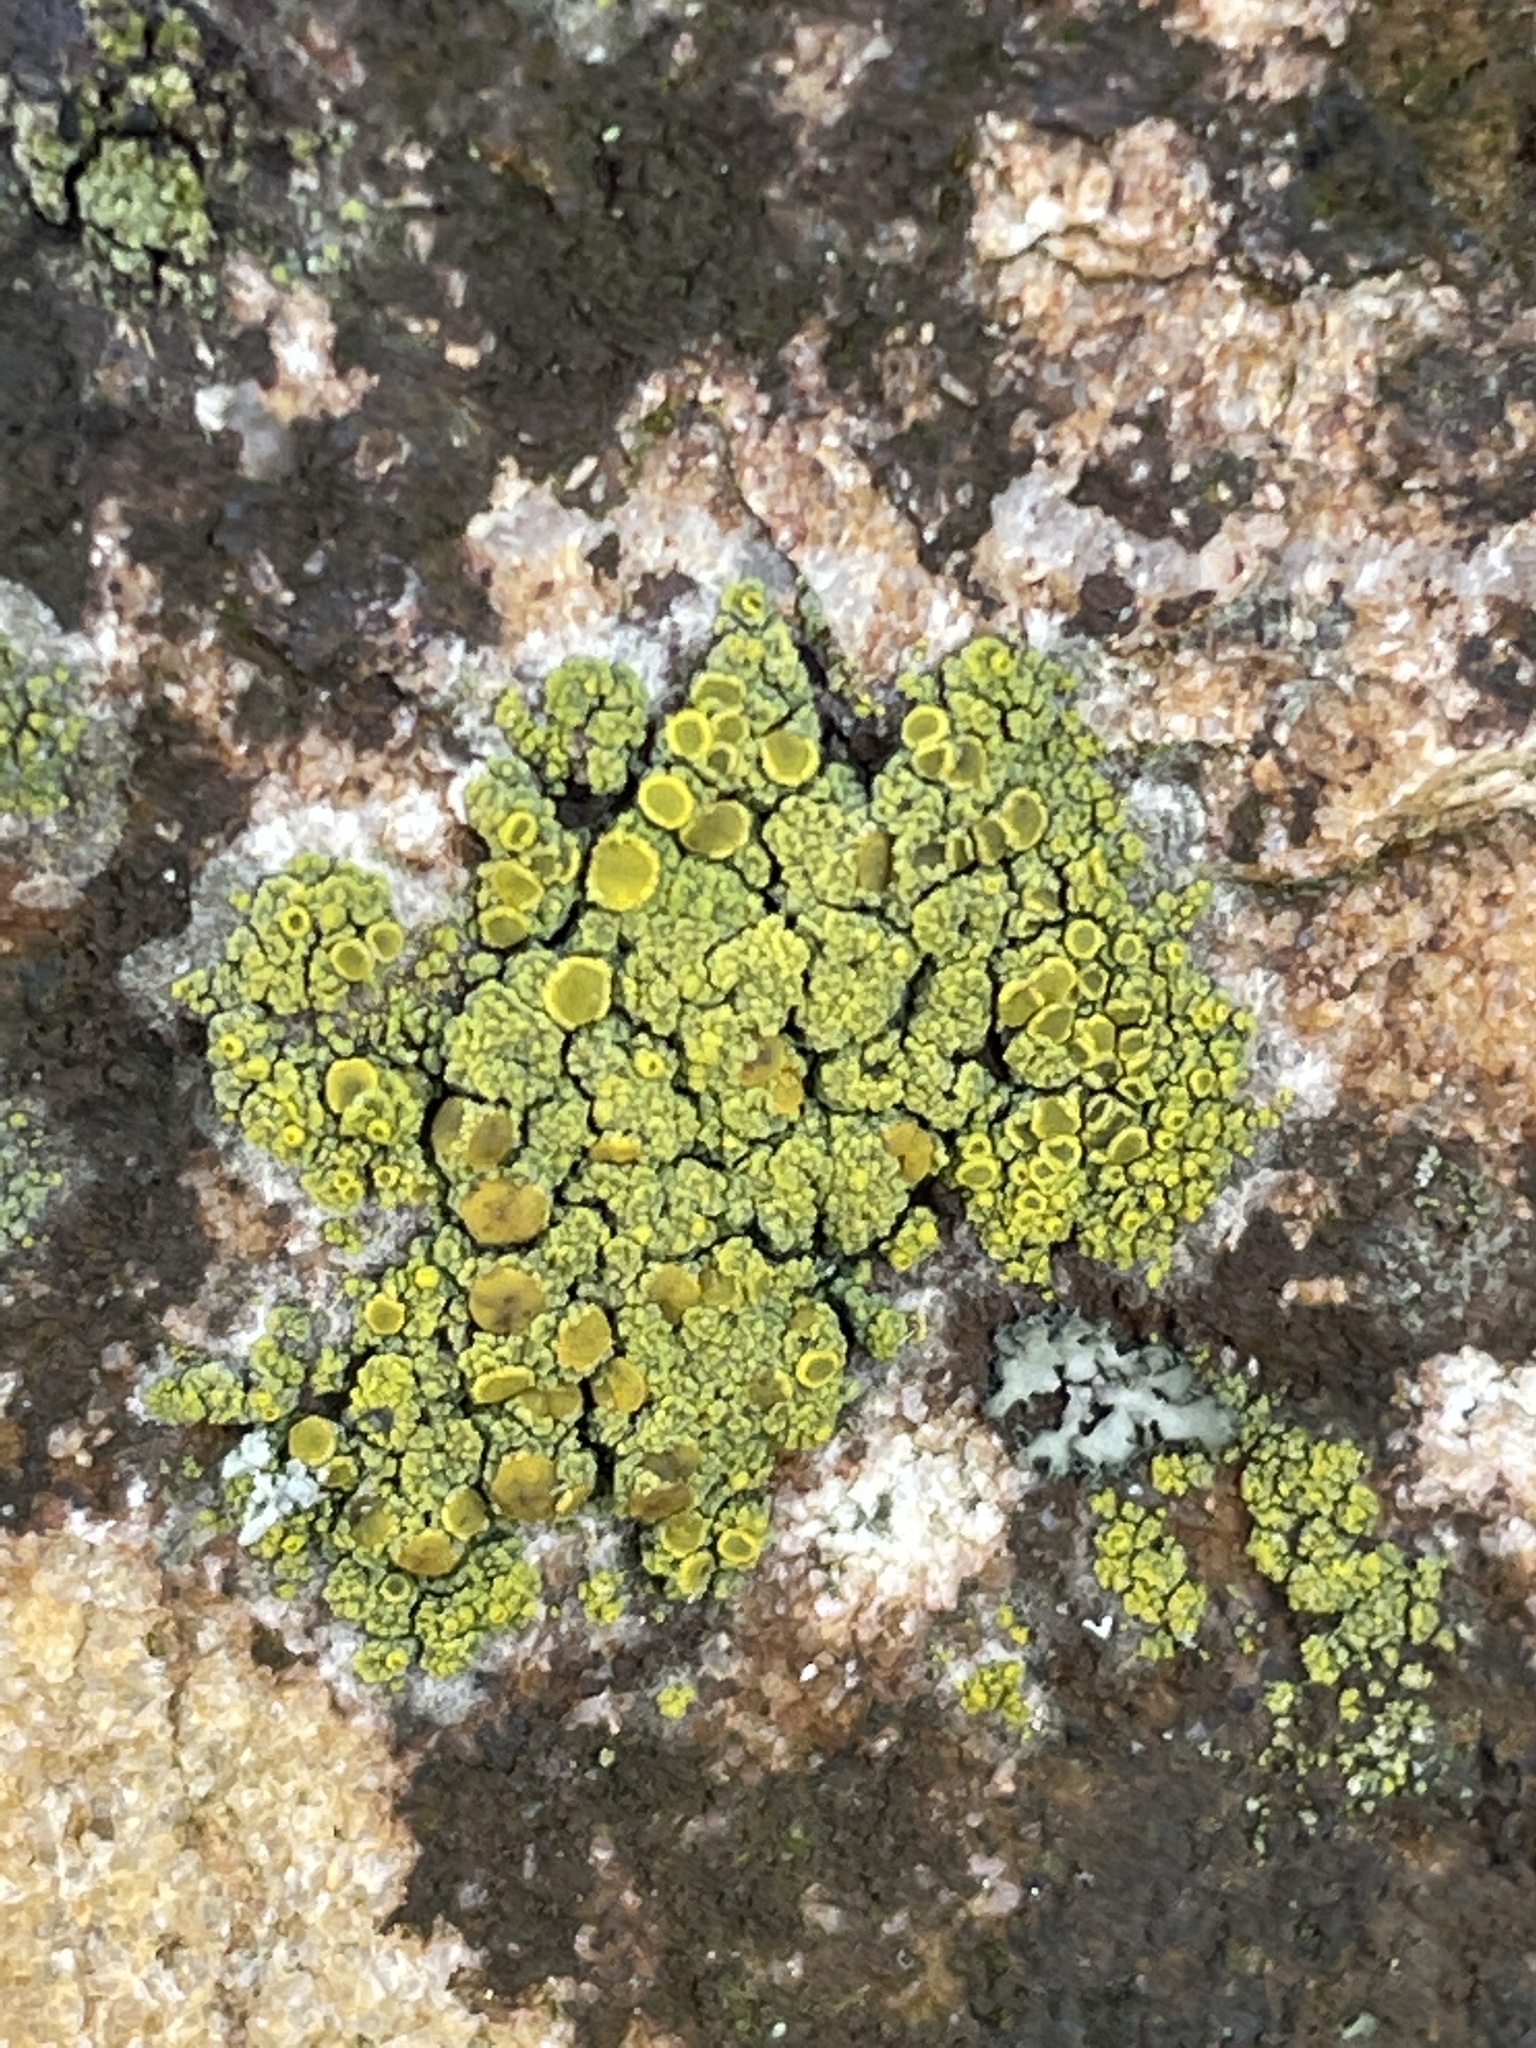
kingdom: Fungi
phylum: Ascomycota
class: Candelariomycetes
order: Candelariales
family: Candelariaceae
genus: Candelariella
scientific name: Candelariella vitellina
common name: Common goldspeck
